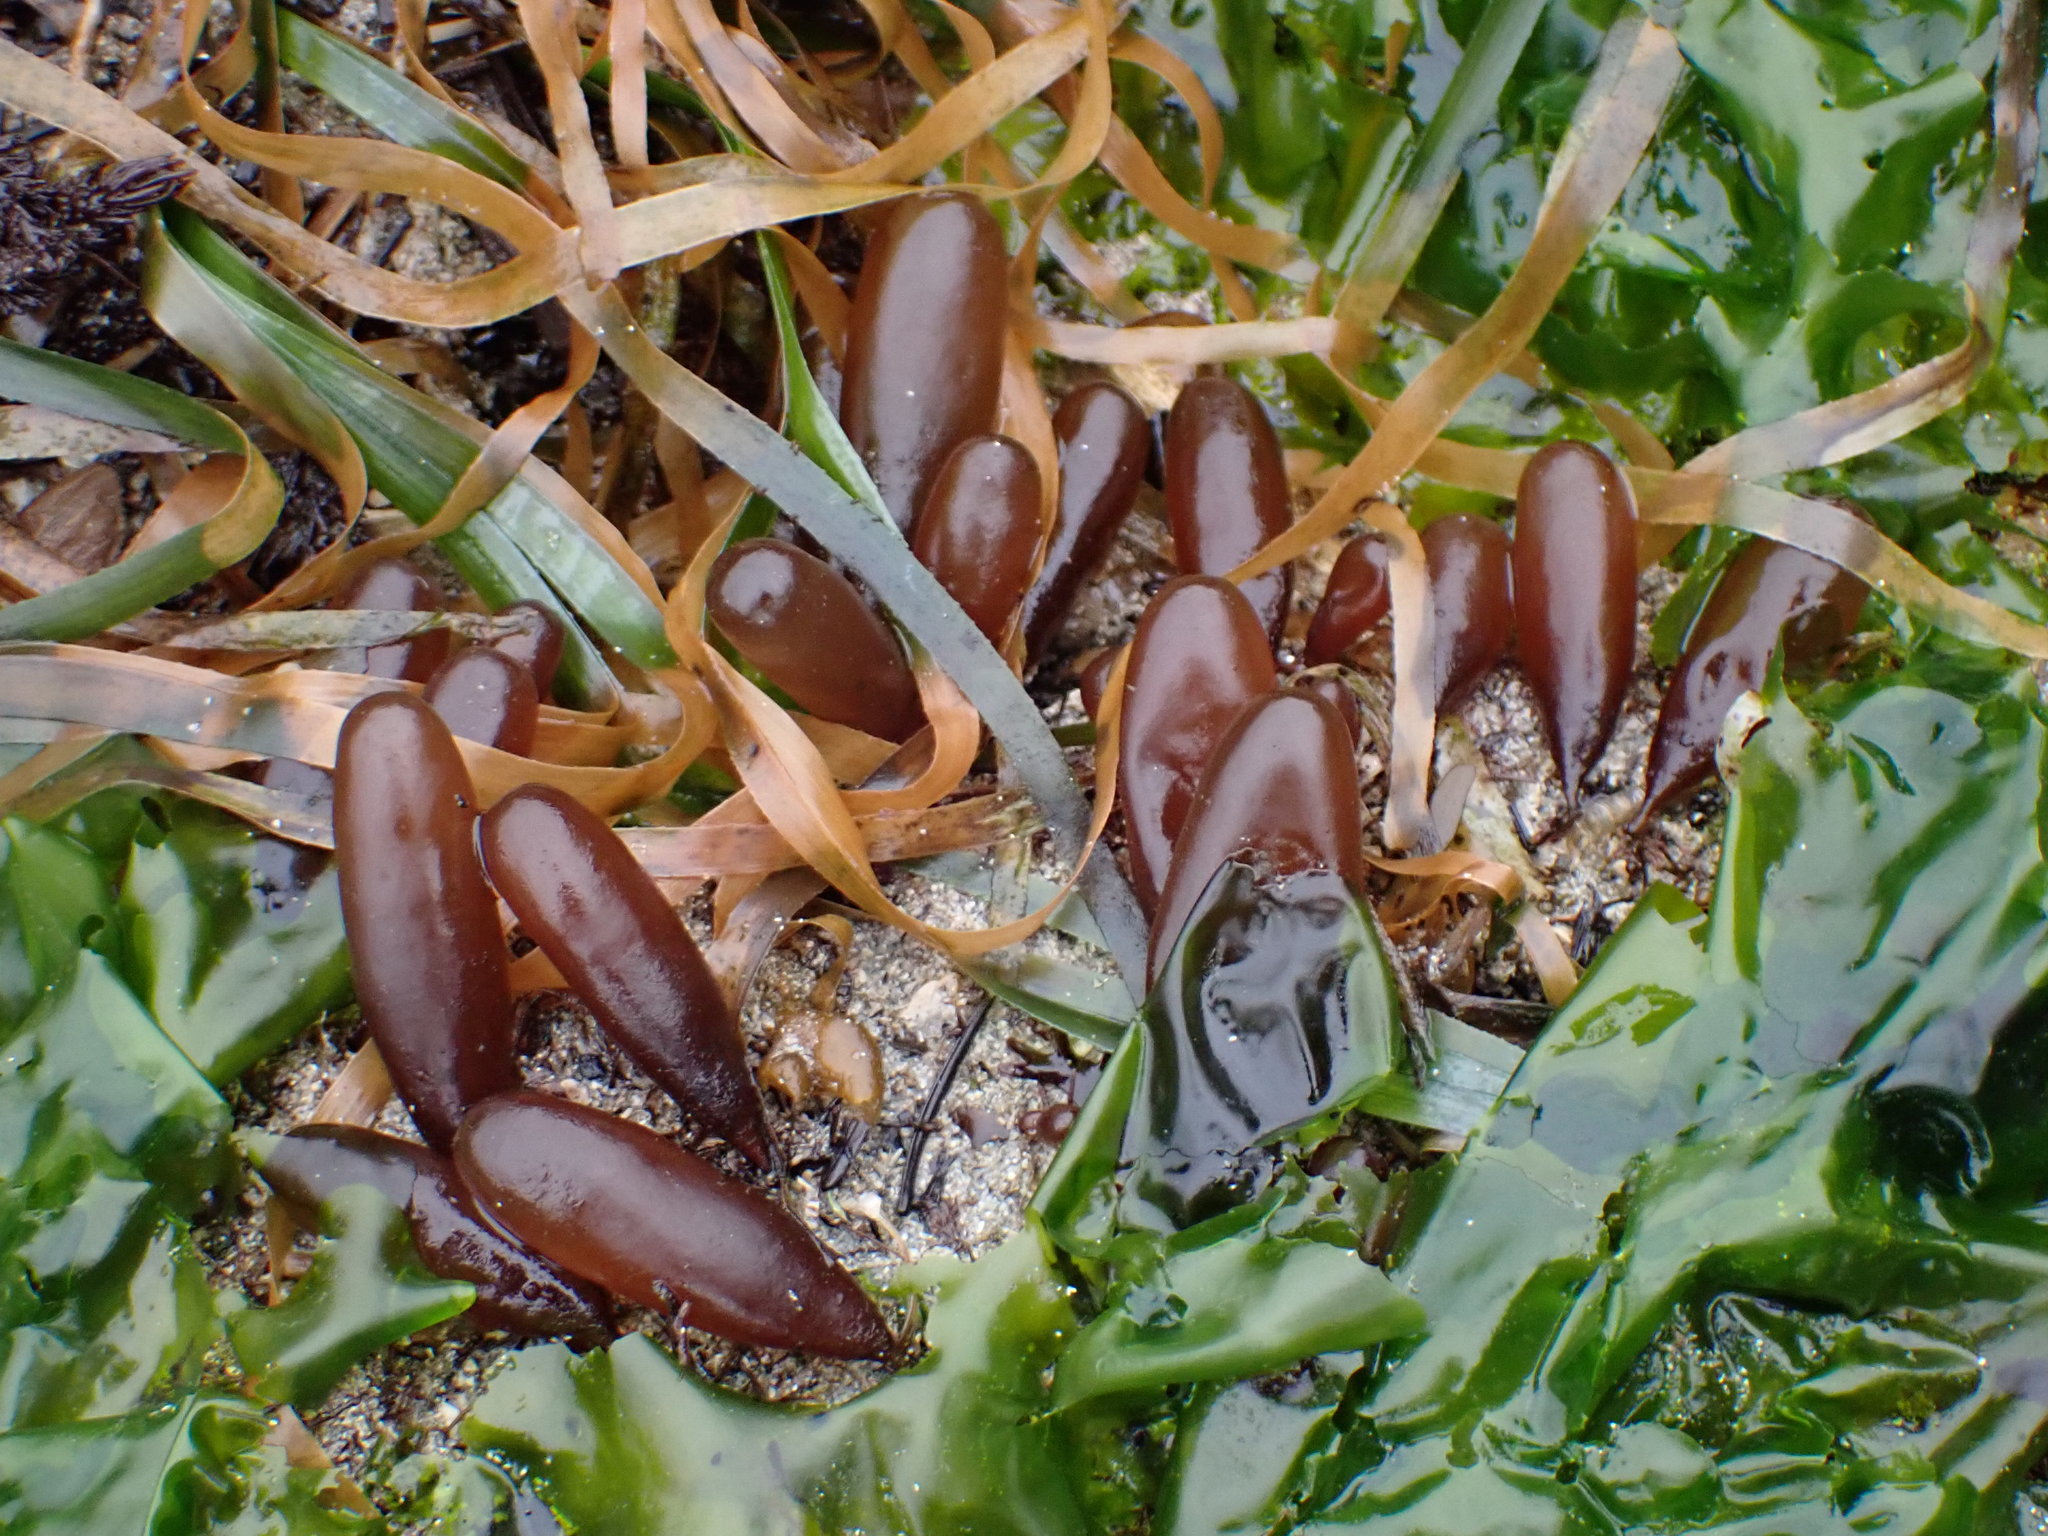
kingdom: Plantae
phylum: Rhodophyta
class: Florideophyceae
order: Palmariales
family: Palmariaceae
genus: Halosaccion
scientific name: Halosaccion glandiforme
